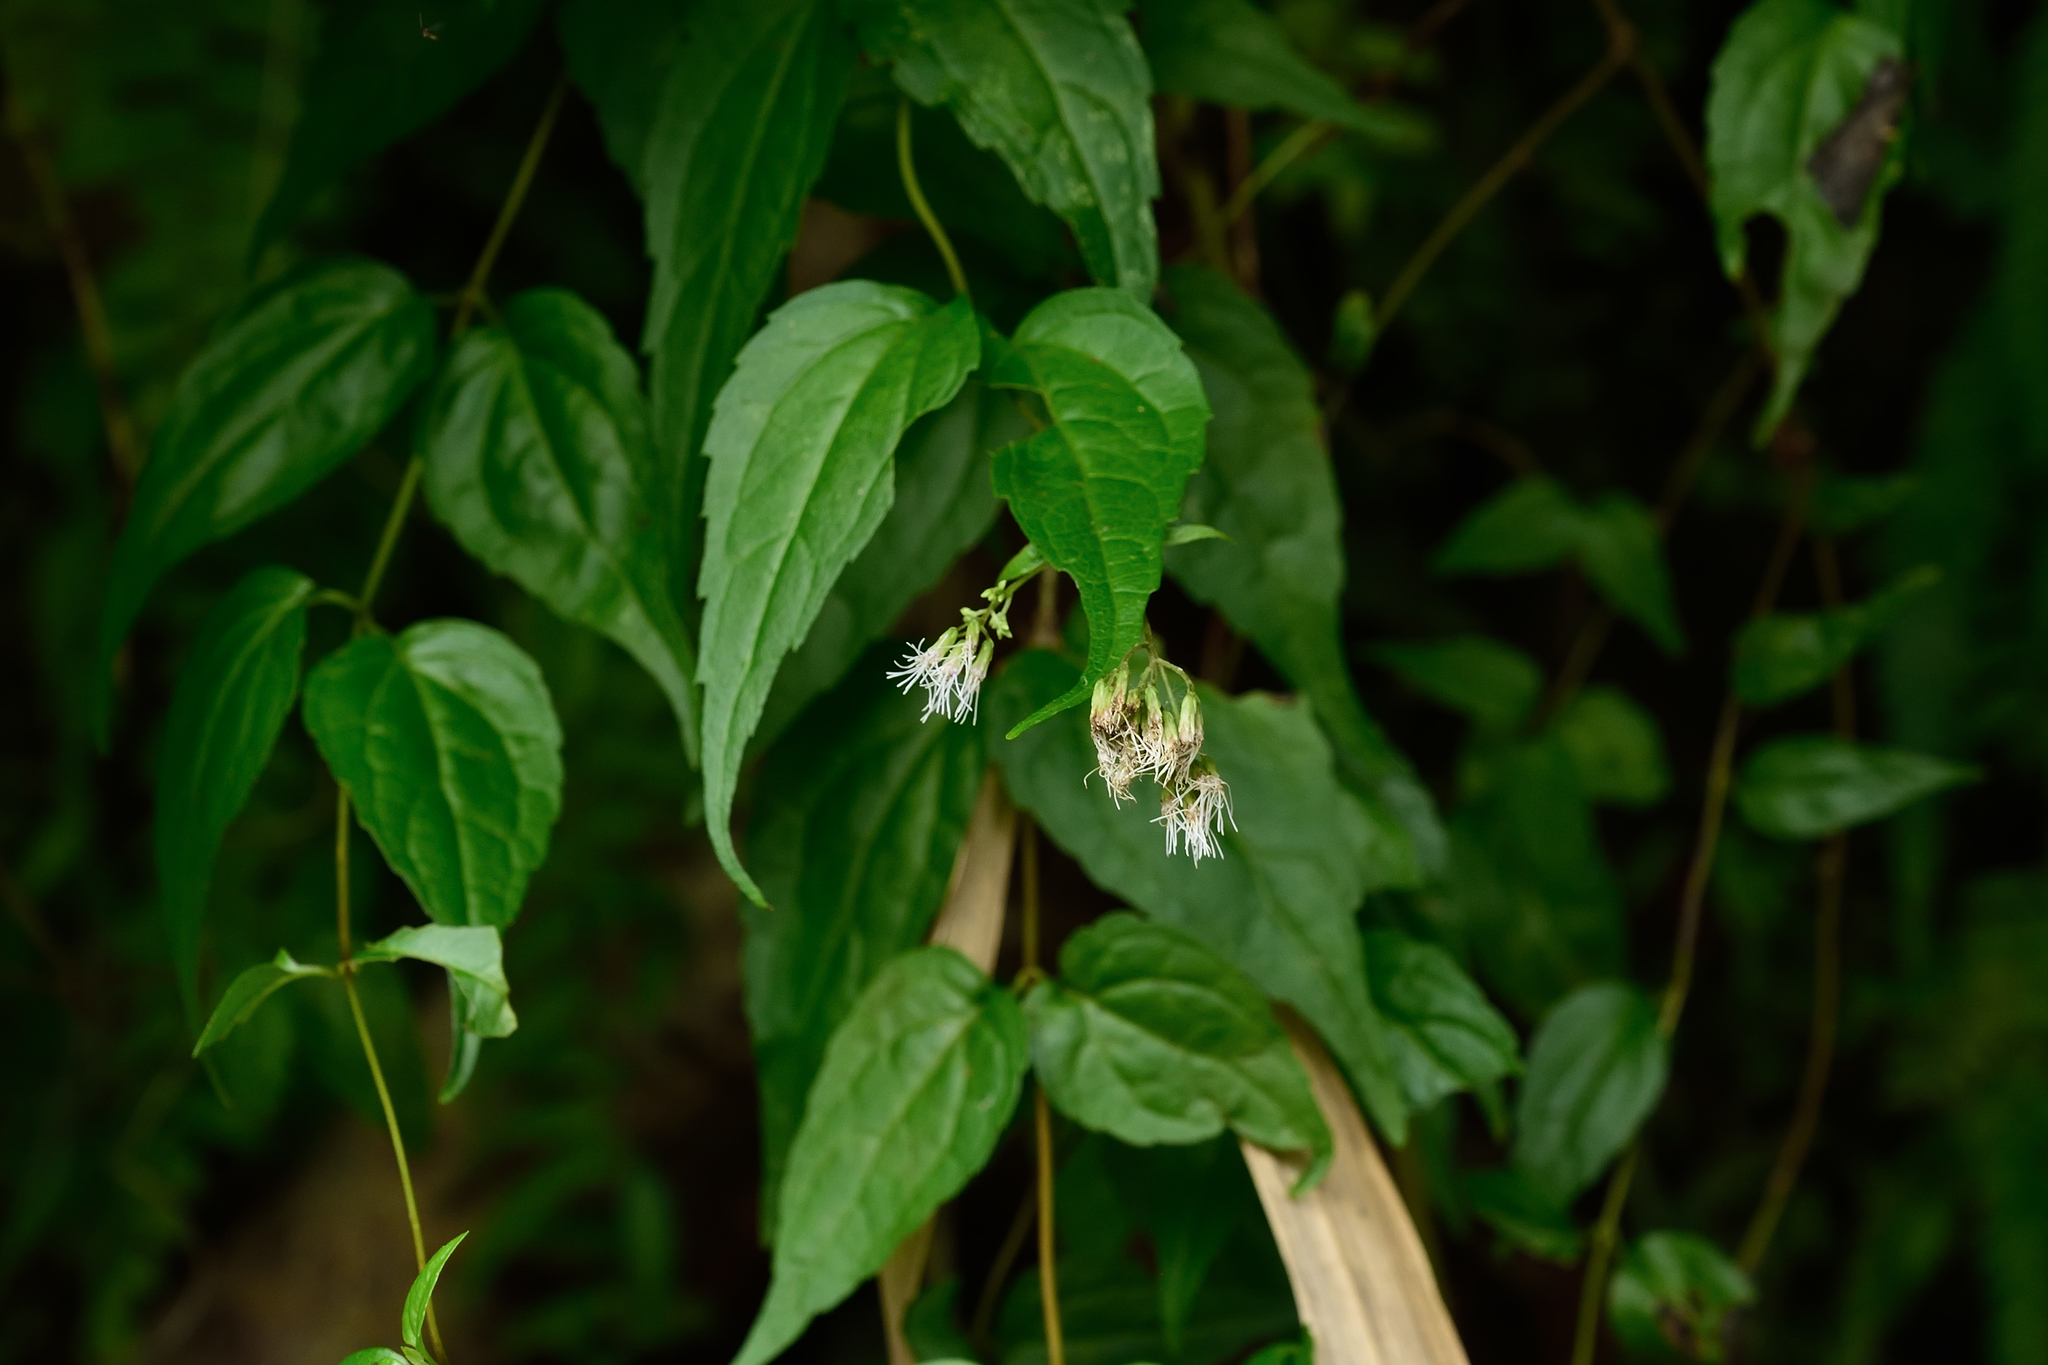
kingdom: Plantae
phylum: Tracheophyta
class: Magnoliopsida
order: Asterales
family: Asteraceae
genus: Eupatorium
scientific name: Eupatorium tashiroi
